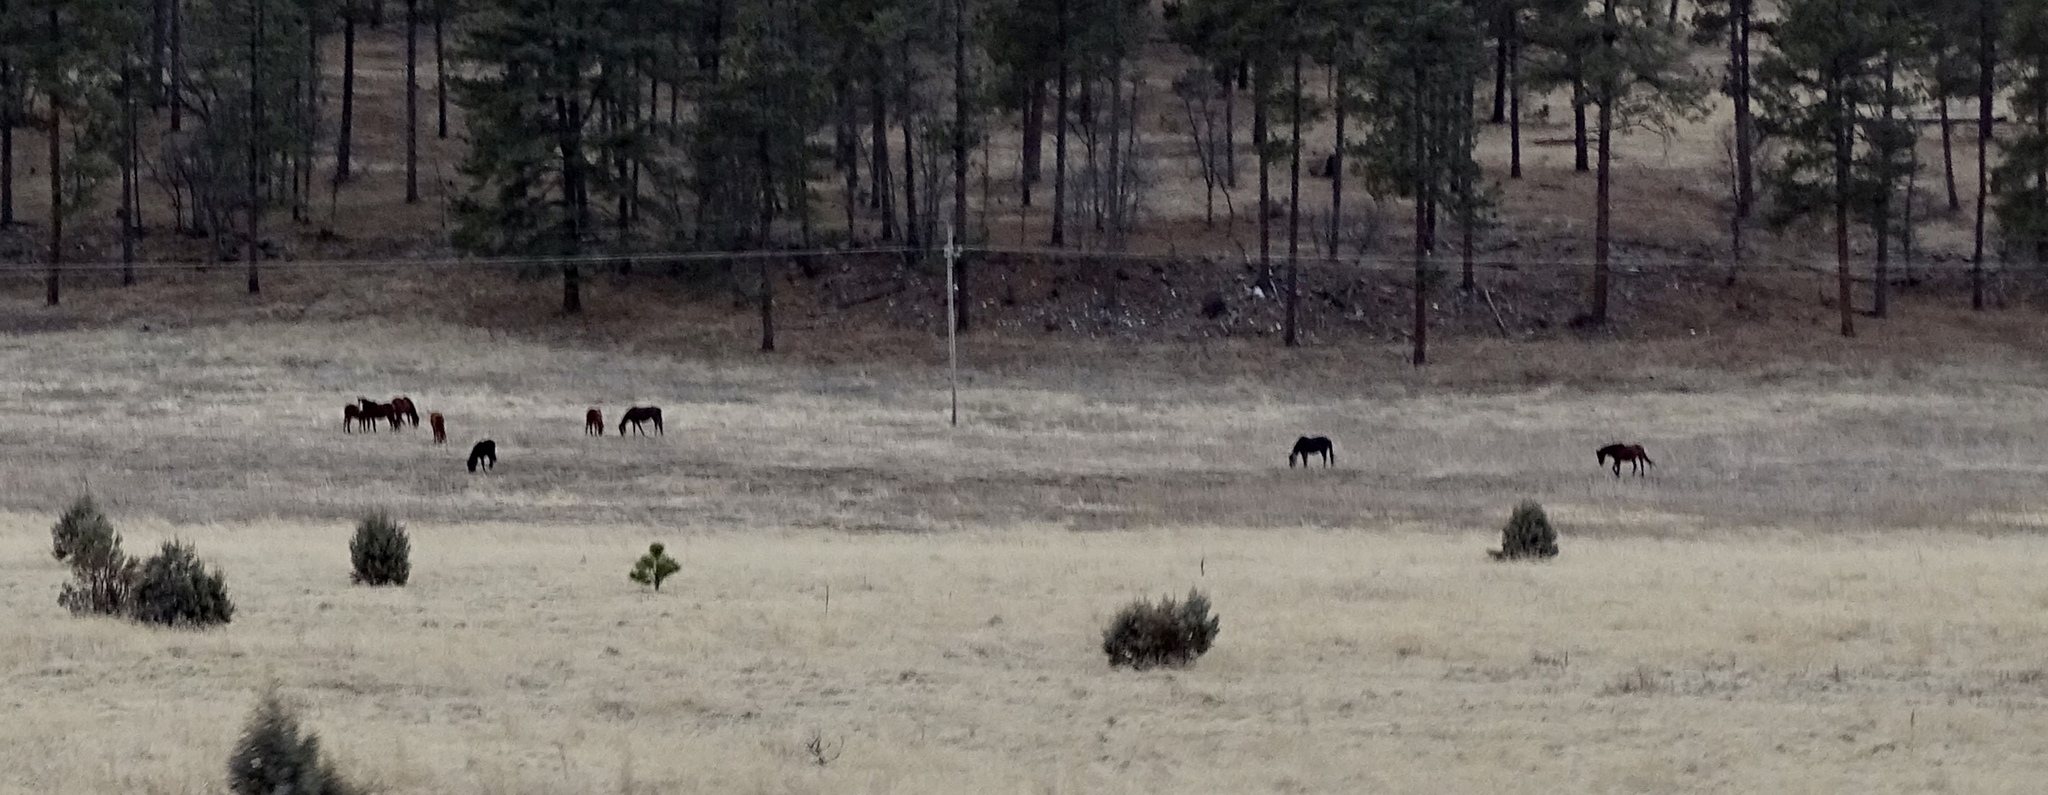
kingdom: Animalia
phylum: Chordata
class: Mammalia
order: Perissodactyla
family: Equidae
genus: Equus
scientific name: Equus caballus
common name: Horse
